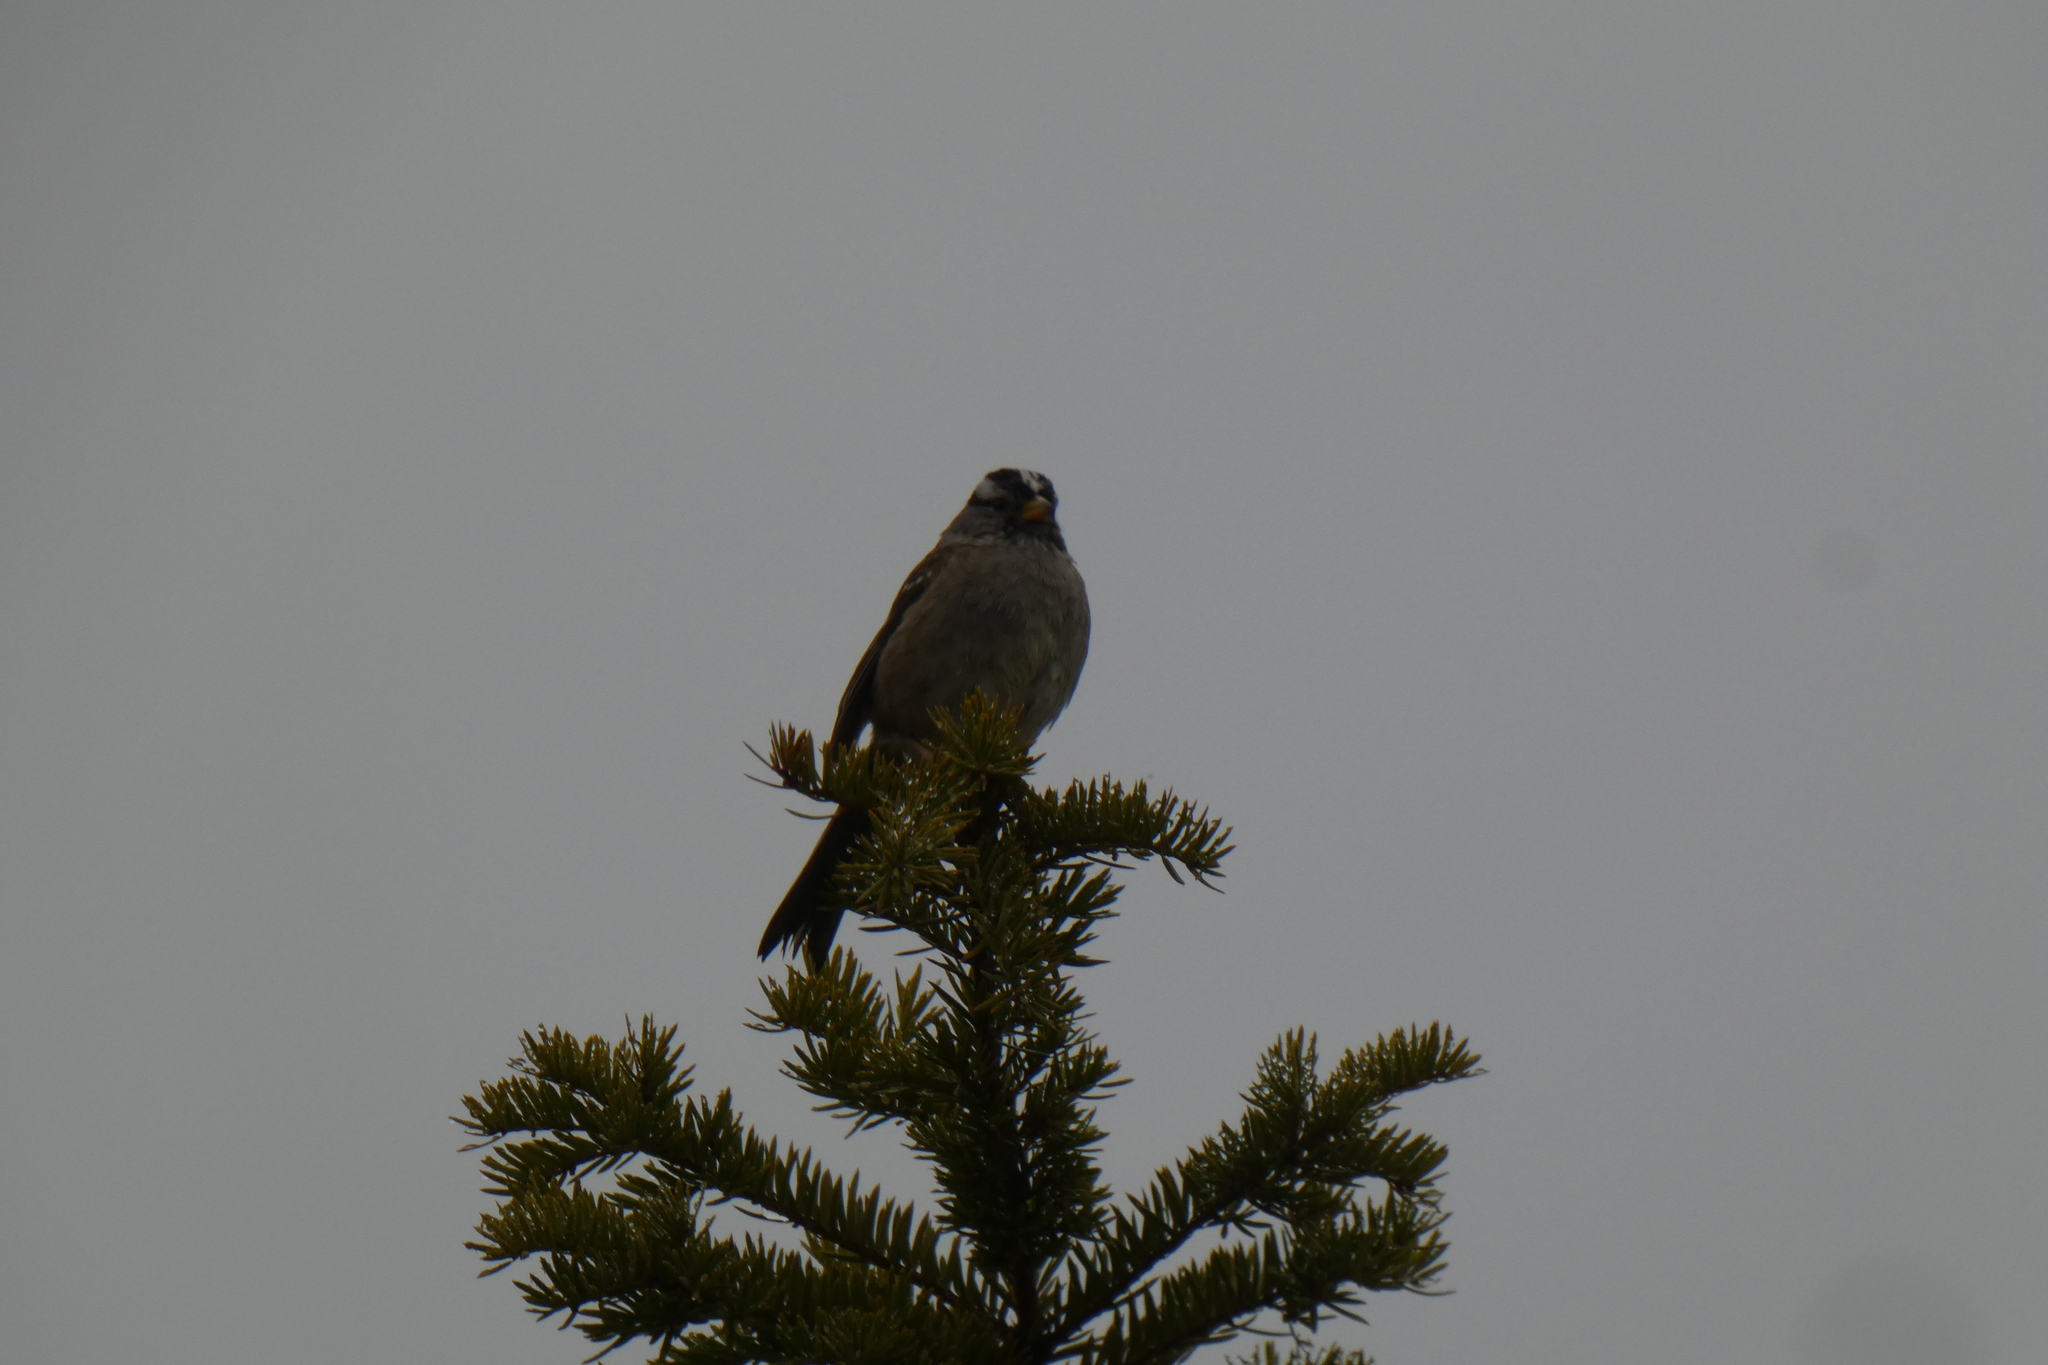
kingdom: Animalia
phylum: Chordata
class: Aves
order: Passeriformes
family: Passerellidae
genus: Zonotrichia
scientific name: Zonotrichia leucophrys
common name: White-crowned sparrow
